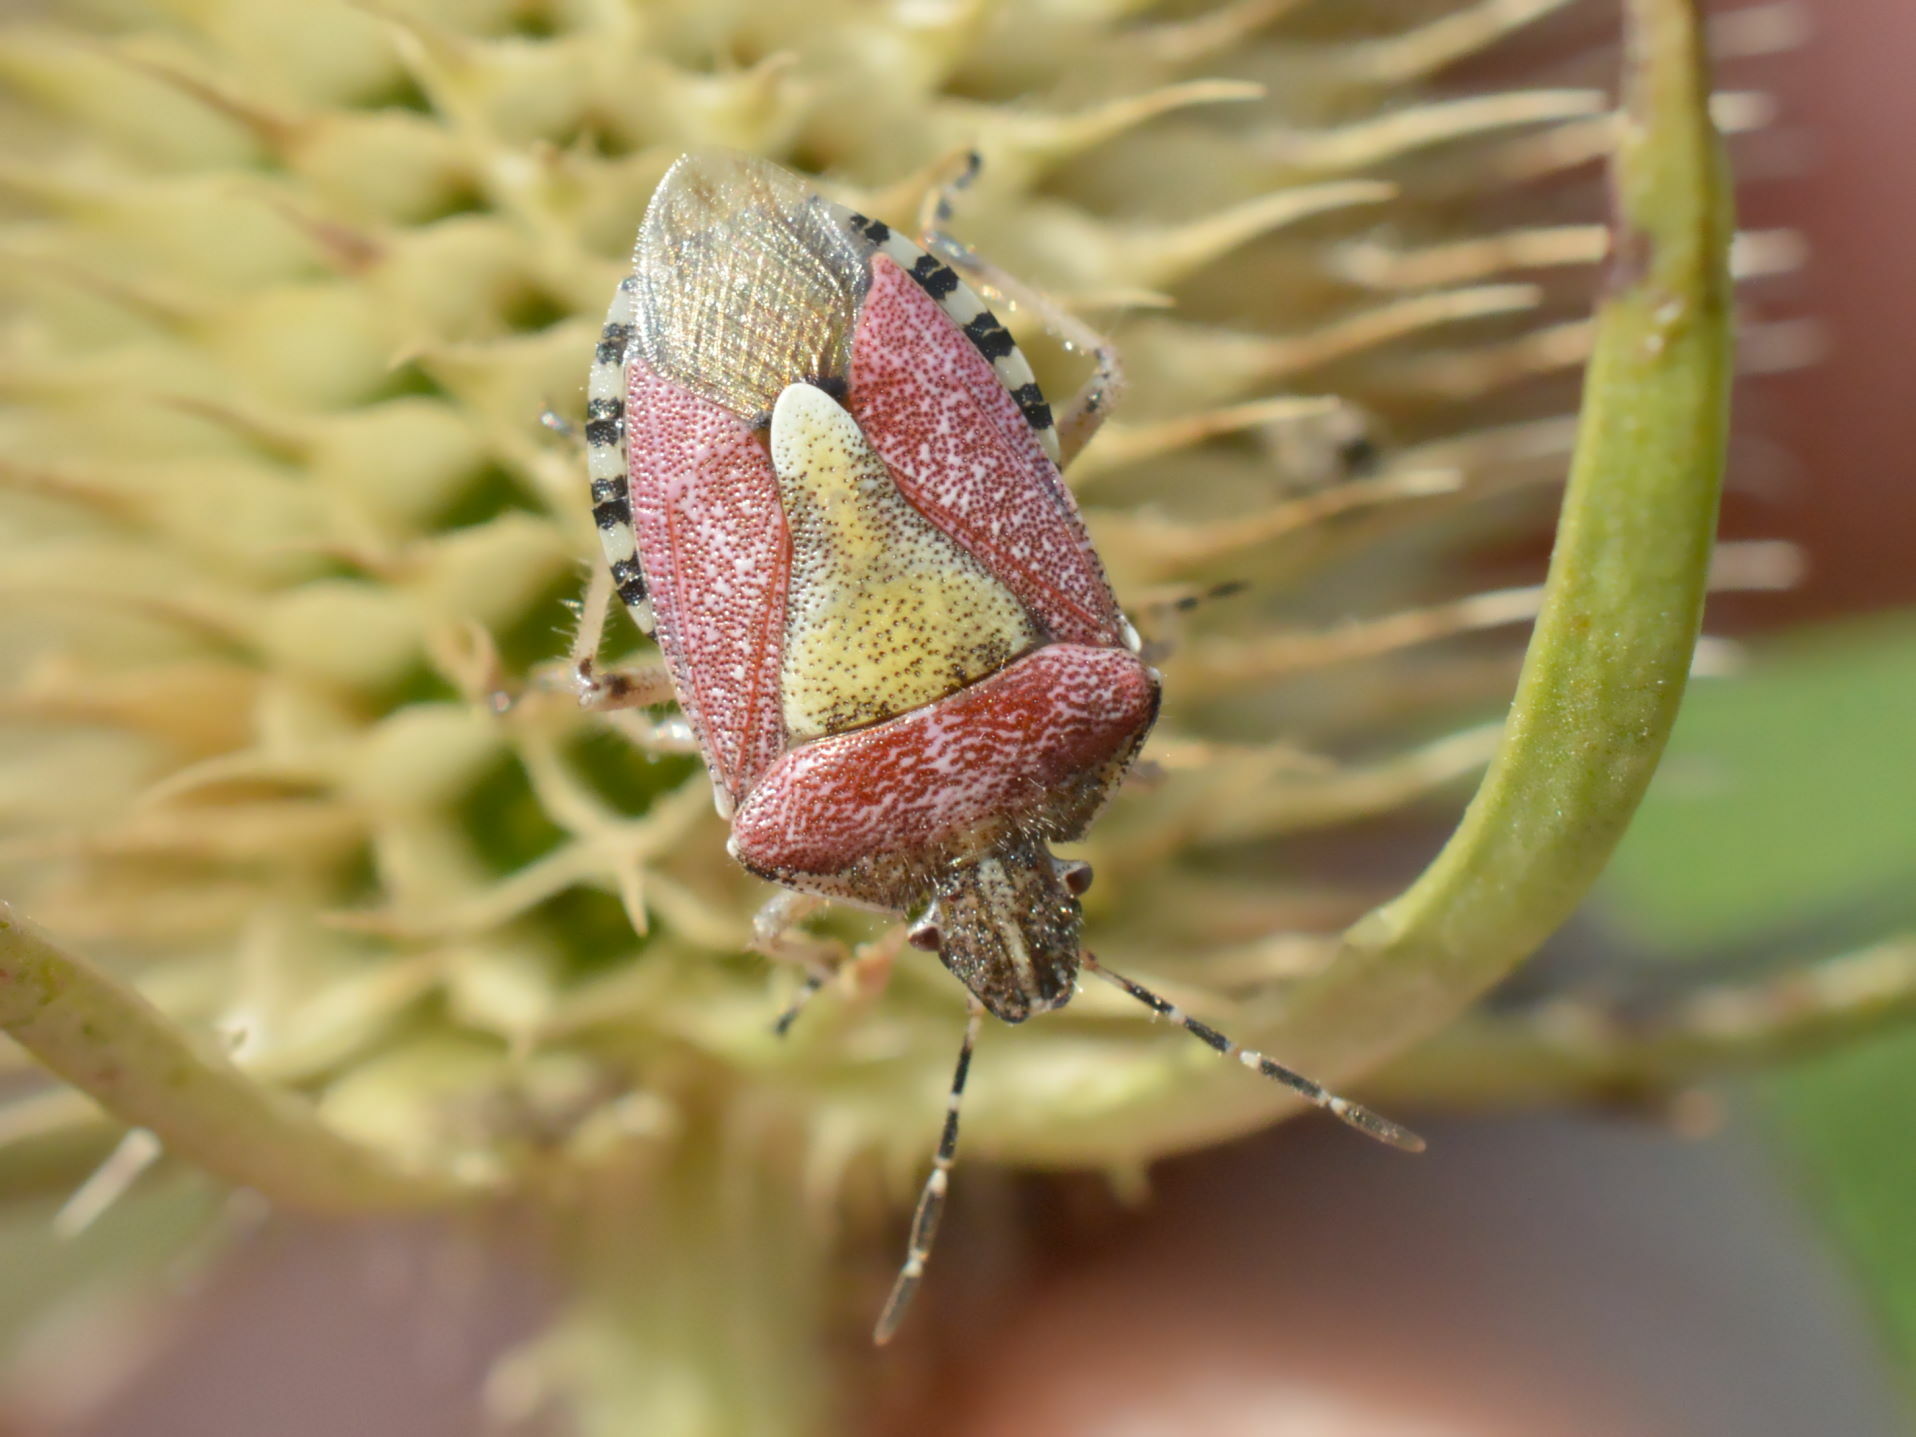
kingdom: Animalia
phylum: Arthropoda
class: Insecta
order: Hemiptera
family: Pentatomidae
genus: Dolycoris
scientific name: Dolycoris baccarum
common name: Sloe bug
